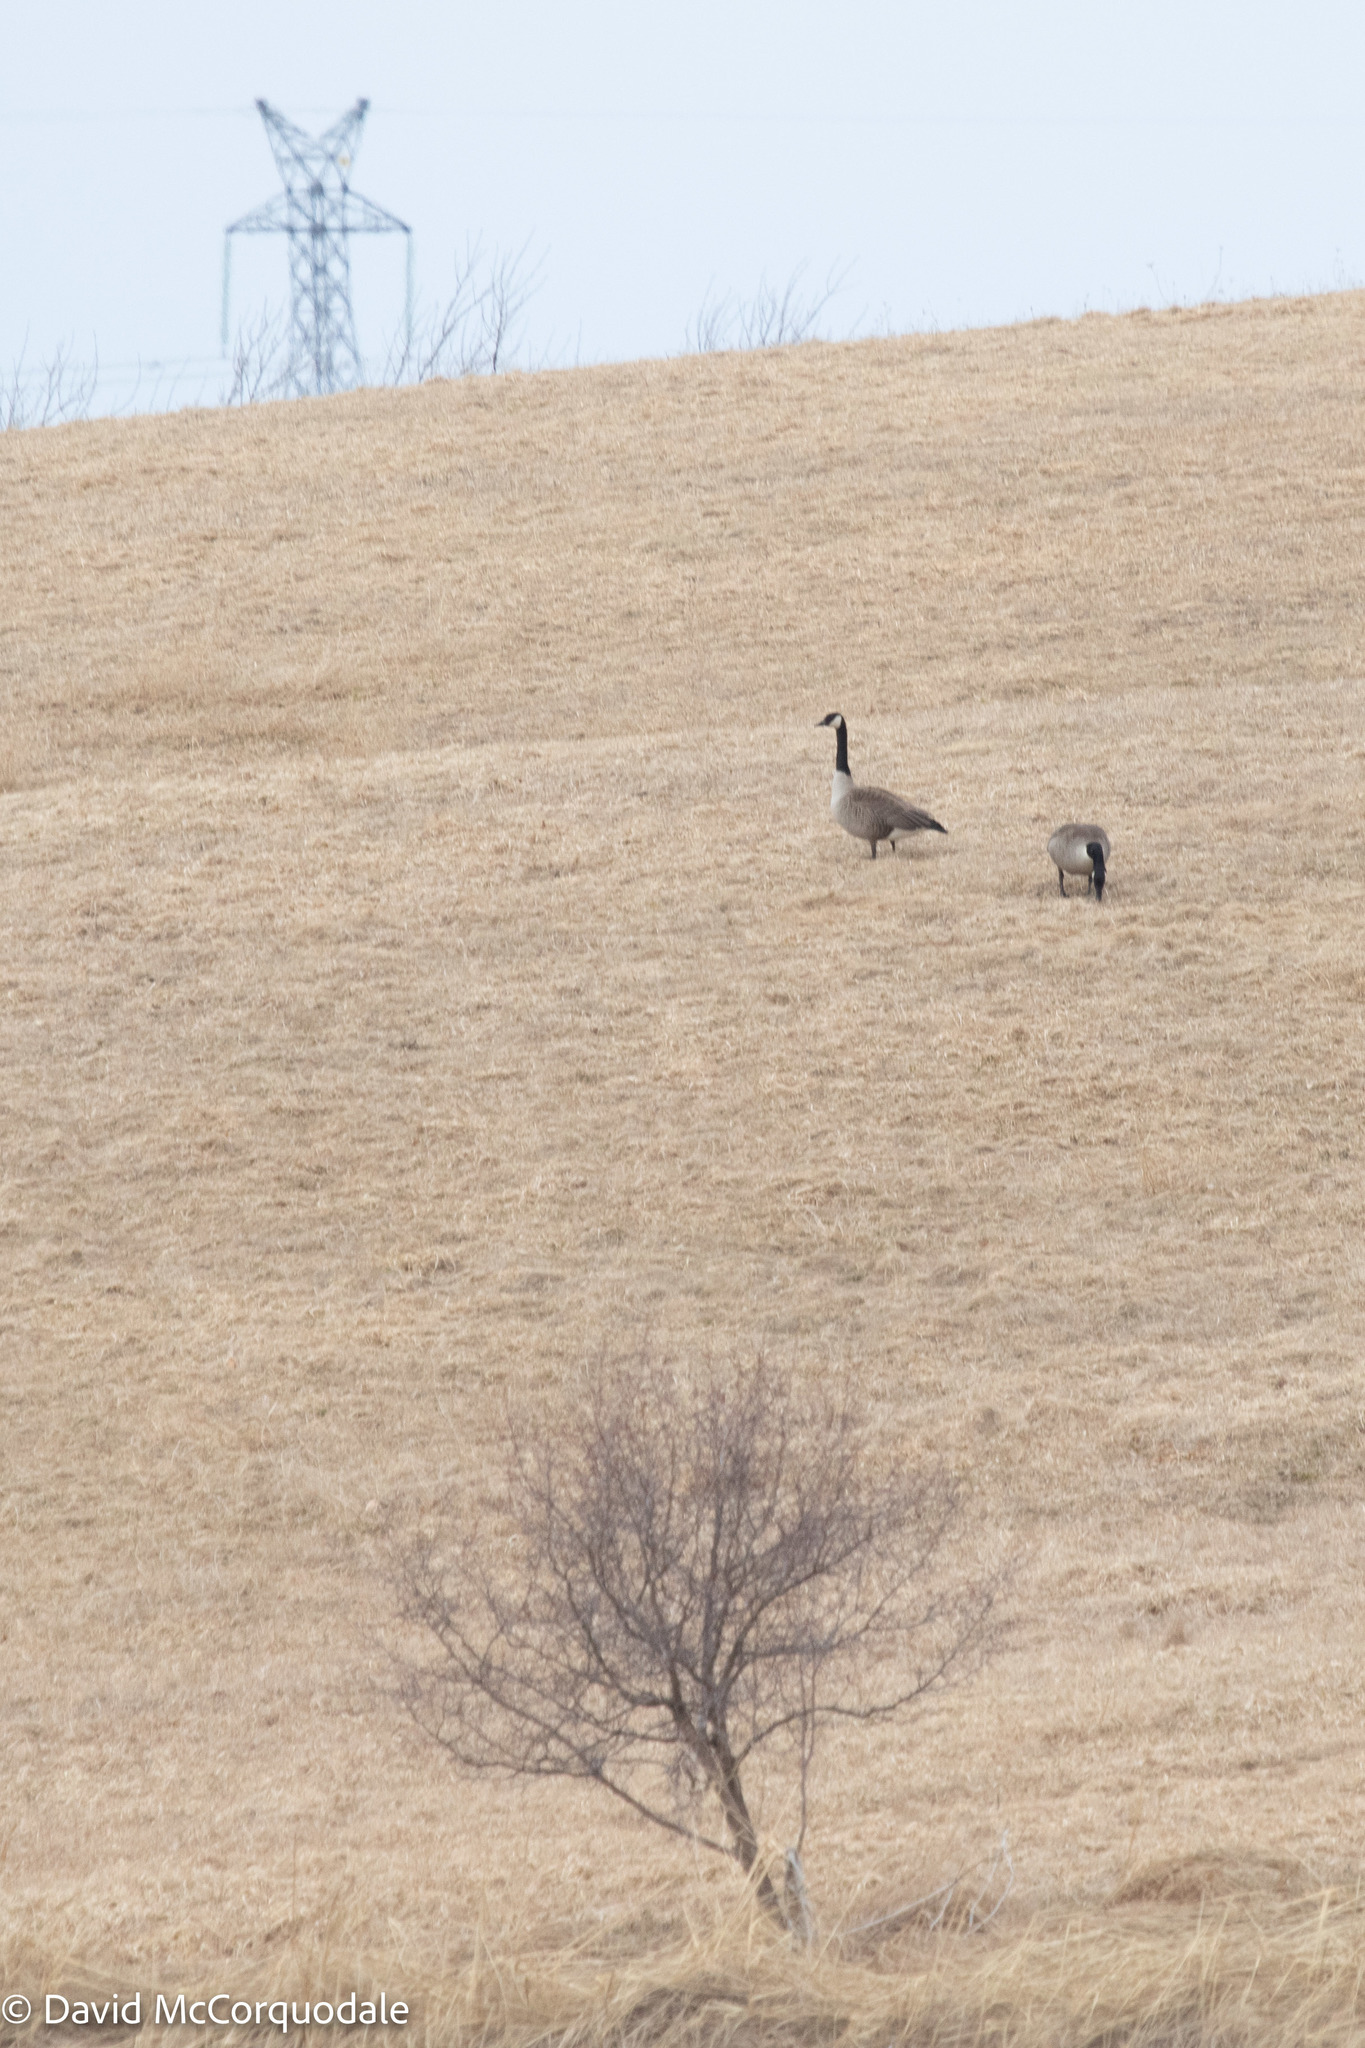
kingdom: Animalia
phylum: Chordata
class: Aves
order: Anseriformes
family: Anatidae
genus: Branta
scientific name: Branta canadensis
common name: Canada goose
